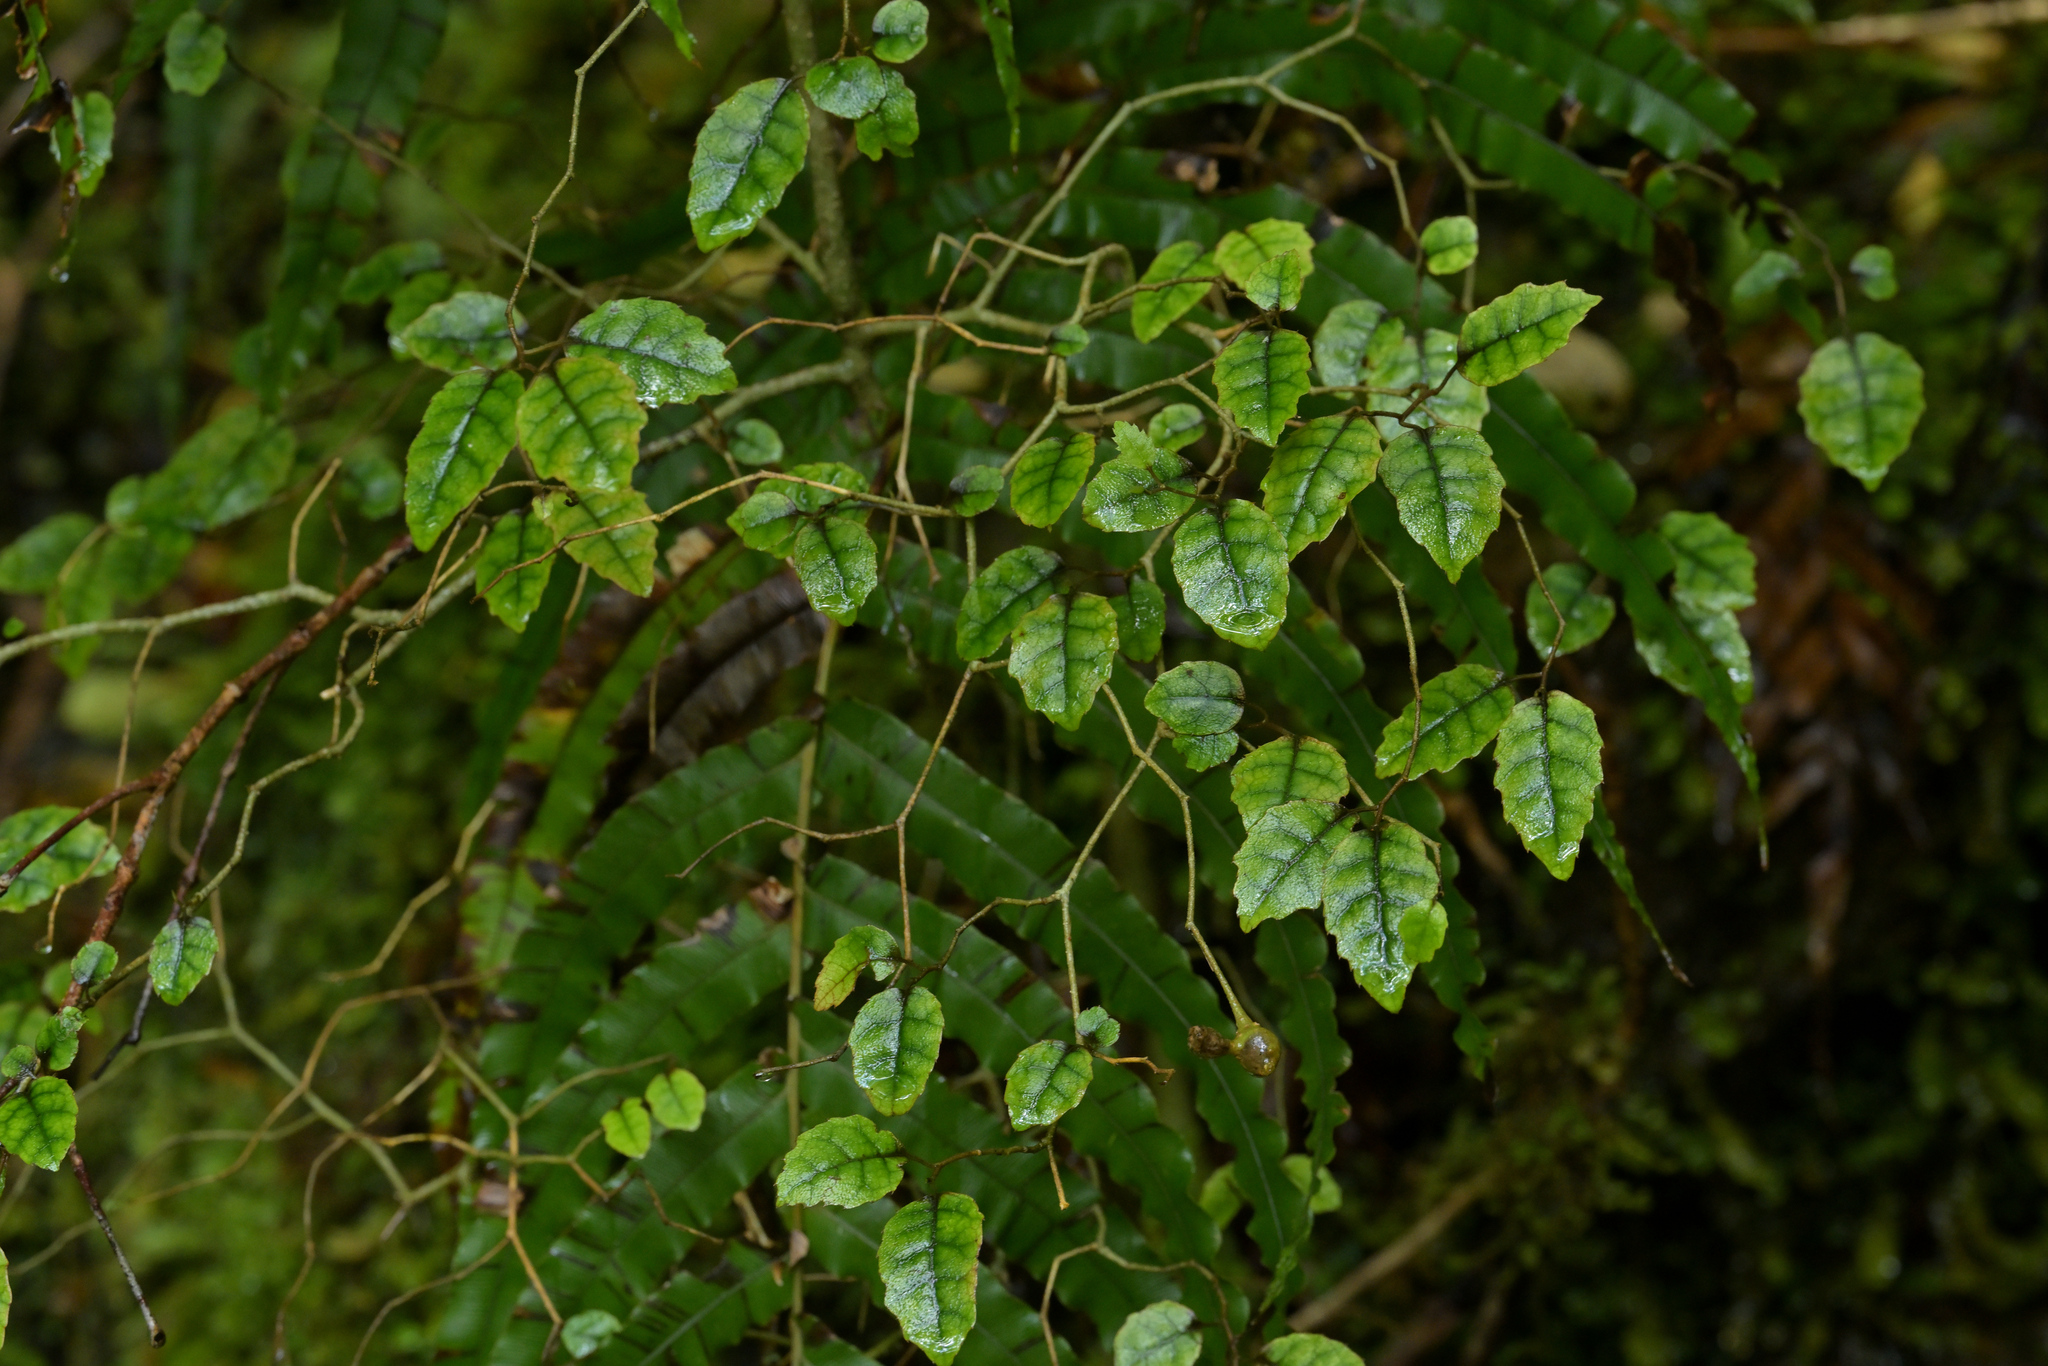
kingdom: Plantae
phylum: Tracheophyta
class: Magnoliopsida
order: Asterales
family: Rousseaceae
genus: Carpodetus
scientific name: Carpodetus serratus
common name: White mapau
